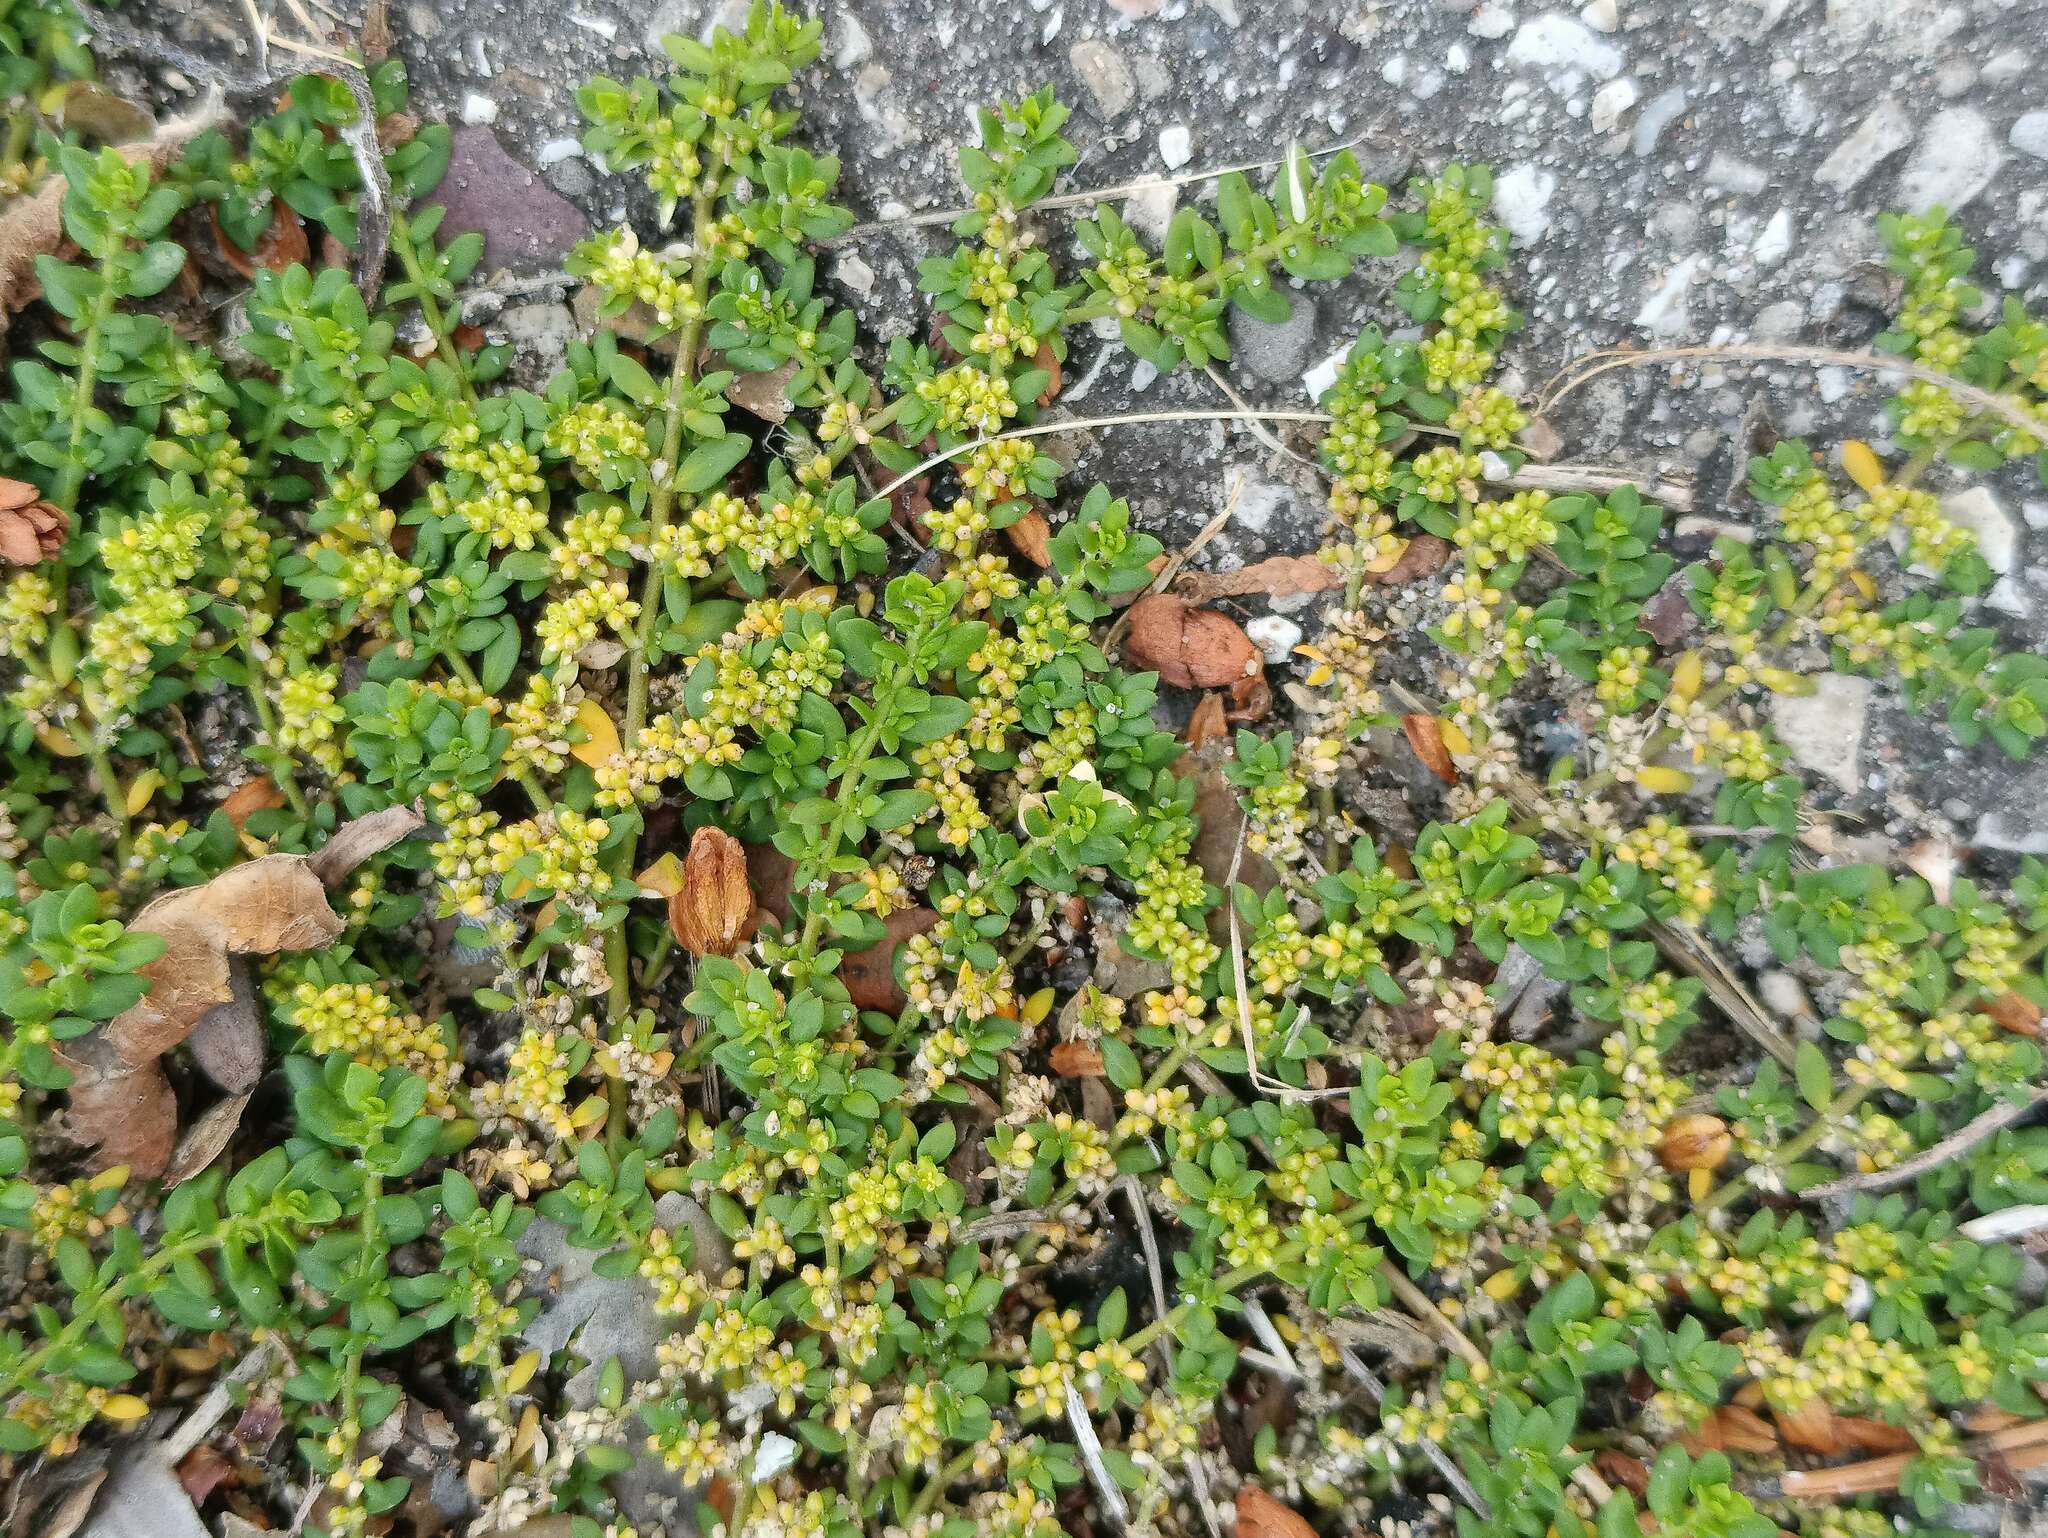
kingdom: Plantae
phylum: Tracheophyta
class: Magnoliopsida
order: Caryophyllales
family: Caryophyllaceae
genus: Herniaria
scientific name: Herniaria glabra
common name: Smooth rupturewort
